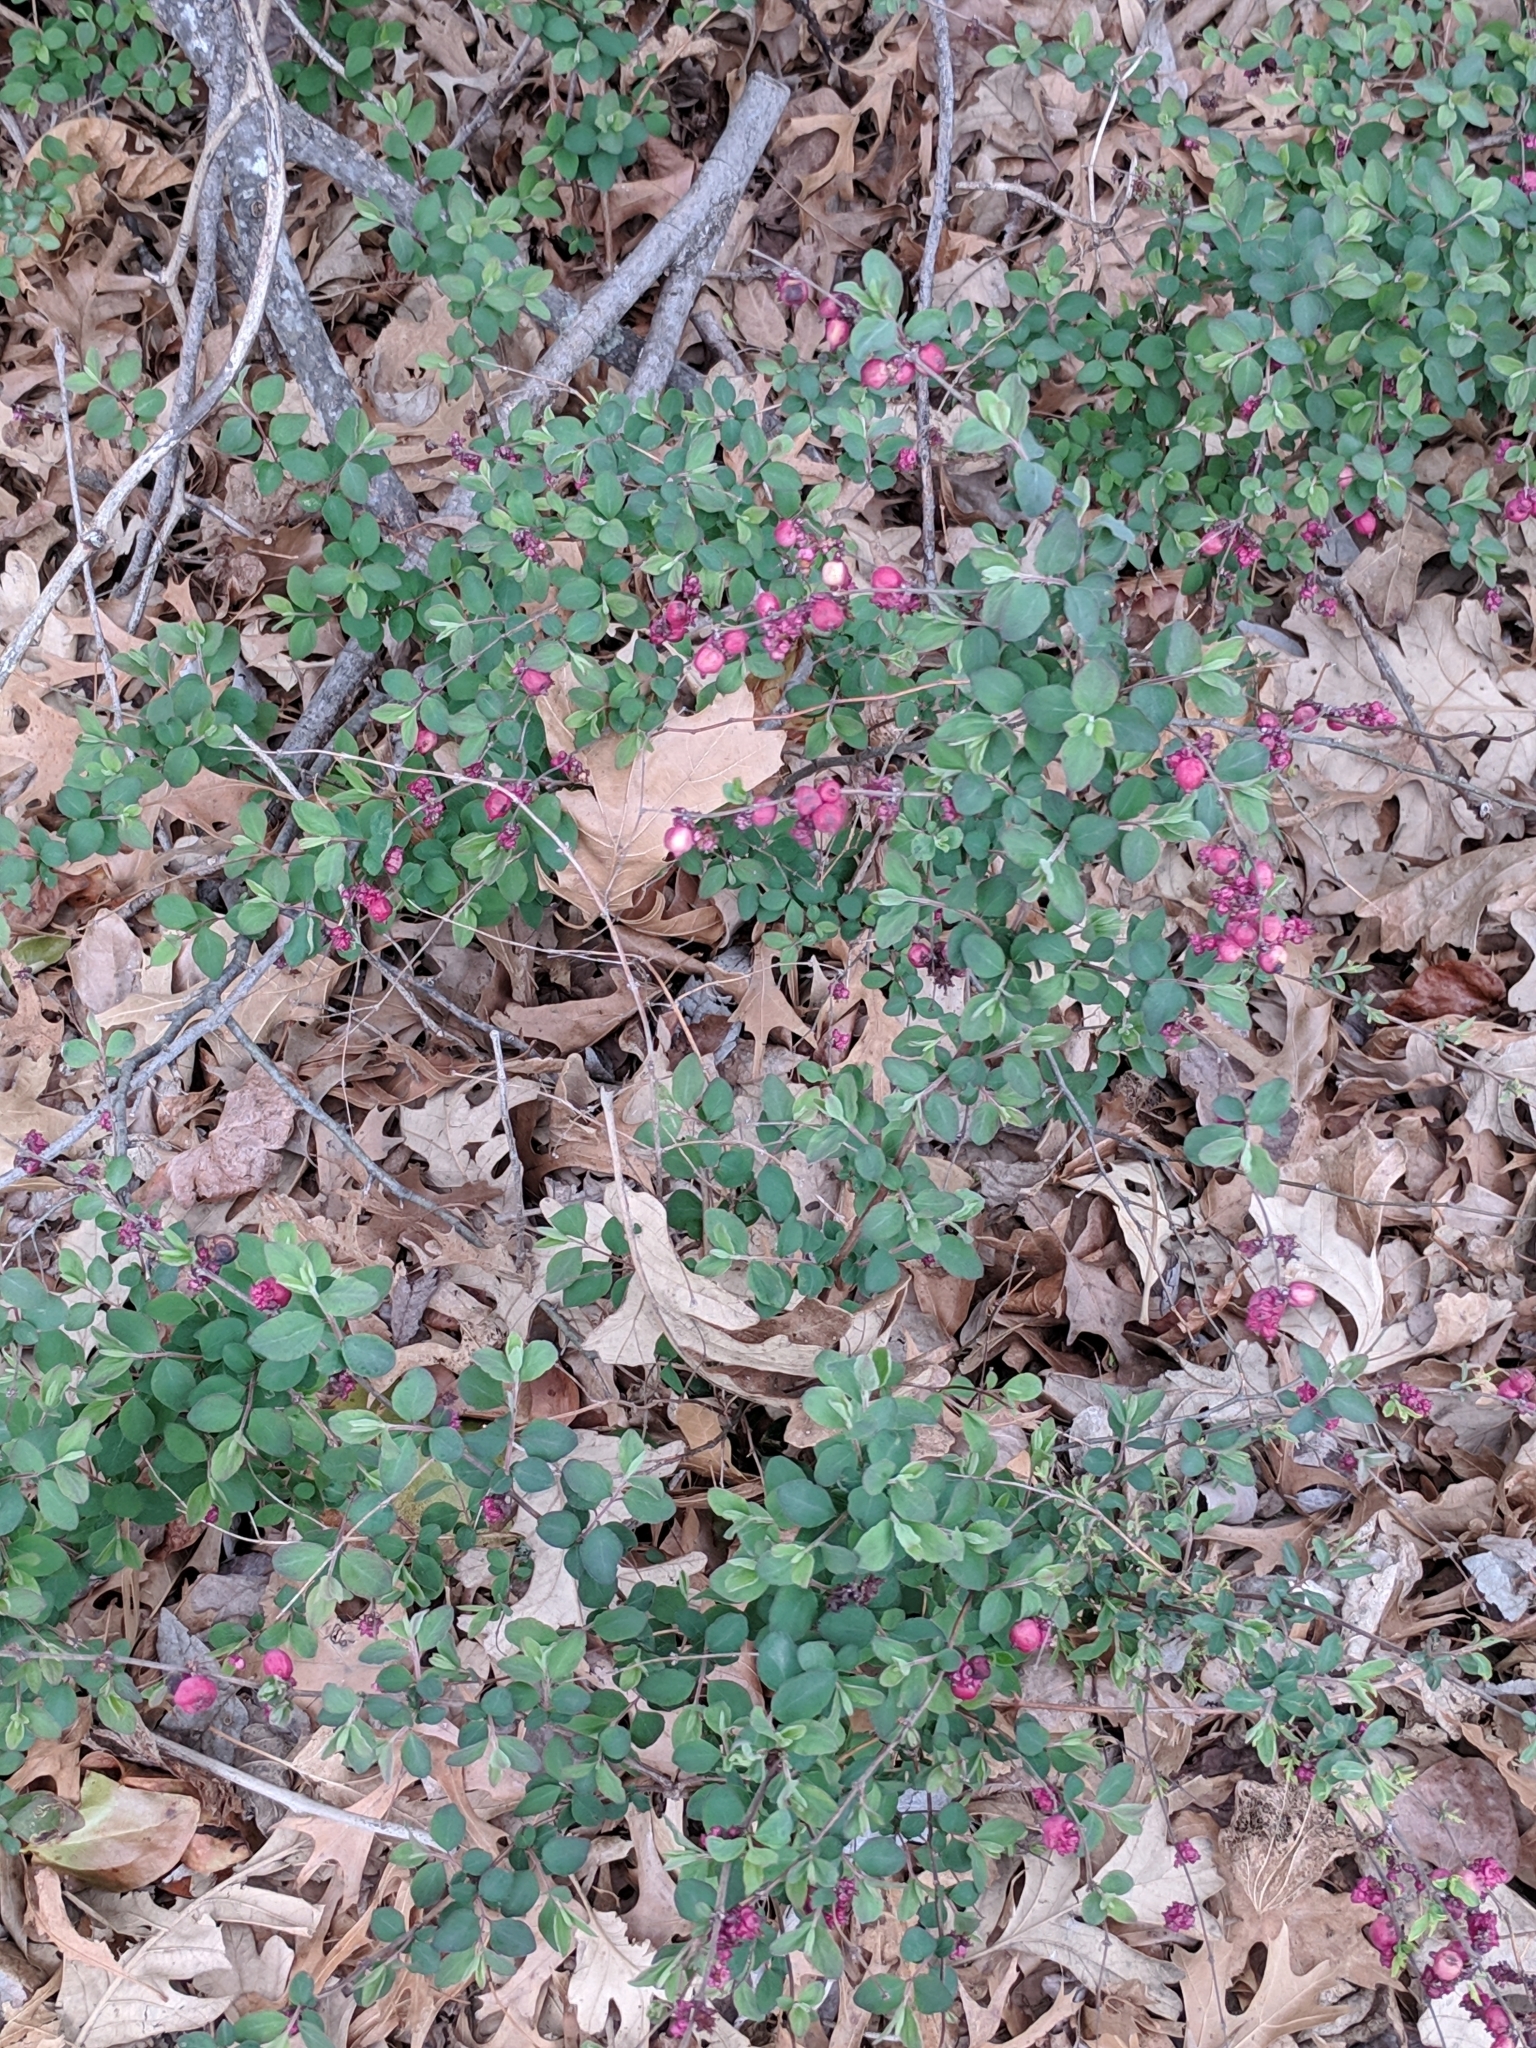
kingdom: Plantae
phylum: Tracheophyta
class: Magnoliopsida
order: Dipsacales
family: Caprifoliaceae
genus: Symphoricarpos
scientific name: Symphoricarpos orbiculatus
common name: Coralberry
